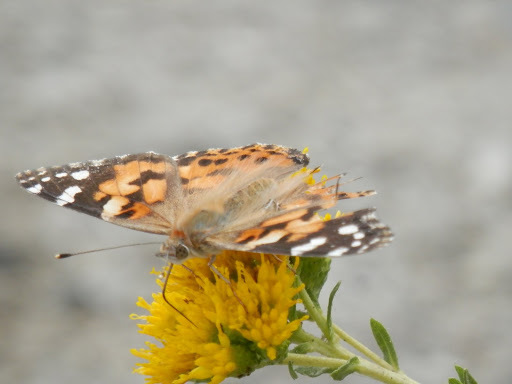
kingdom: Animalia
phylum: Arthropoda
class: Insecta
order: Lepidoptera
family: Nymphalidae
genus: Vanessa
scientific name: Vanessa cardui
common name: Painted lady
